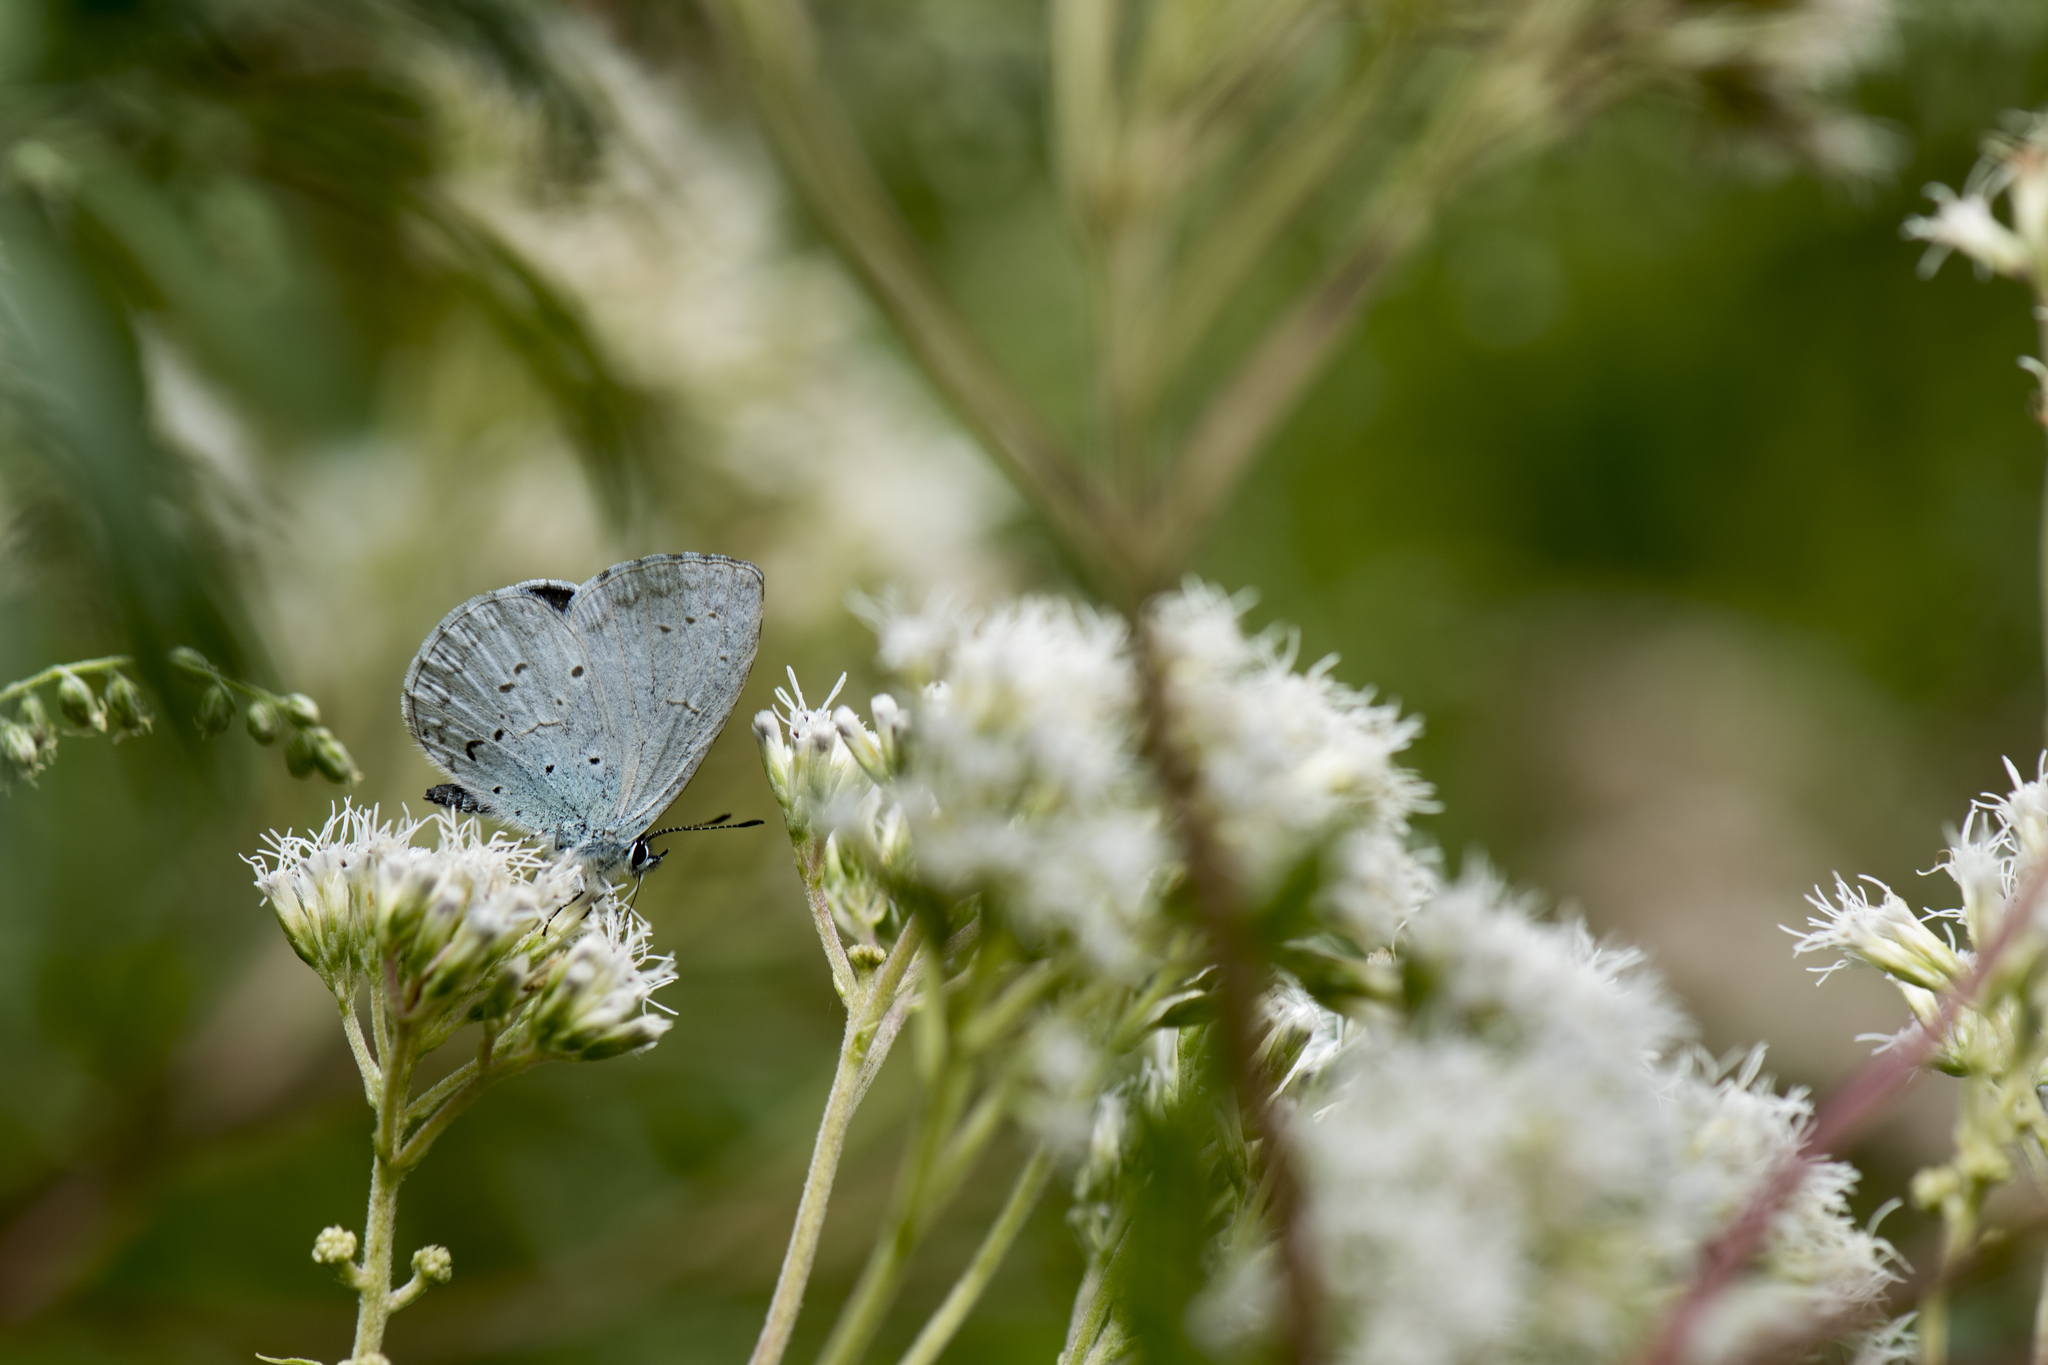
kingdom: Animalia
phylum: Arthropoda
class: Insecta
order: Lepidoptera
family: Lycaenidae
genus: Celastrina
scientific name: Celastrina oreas
